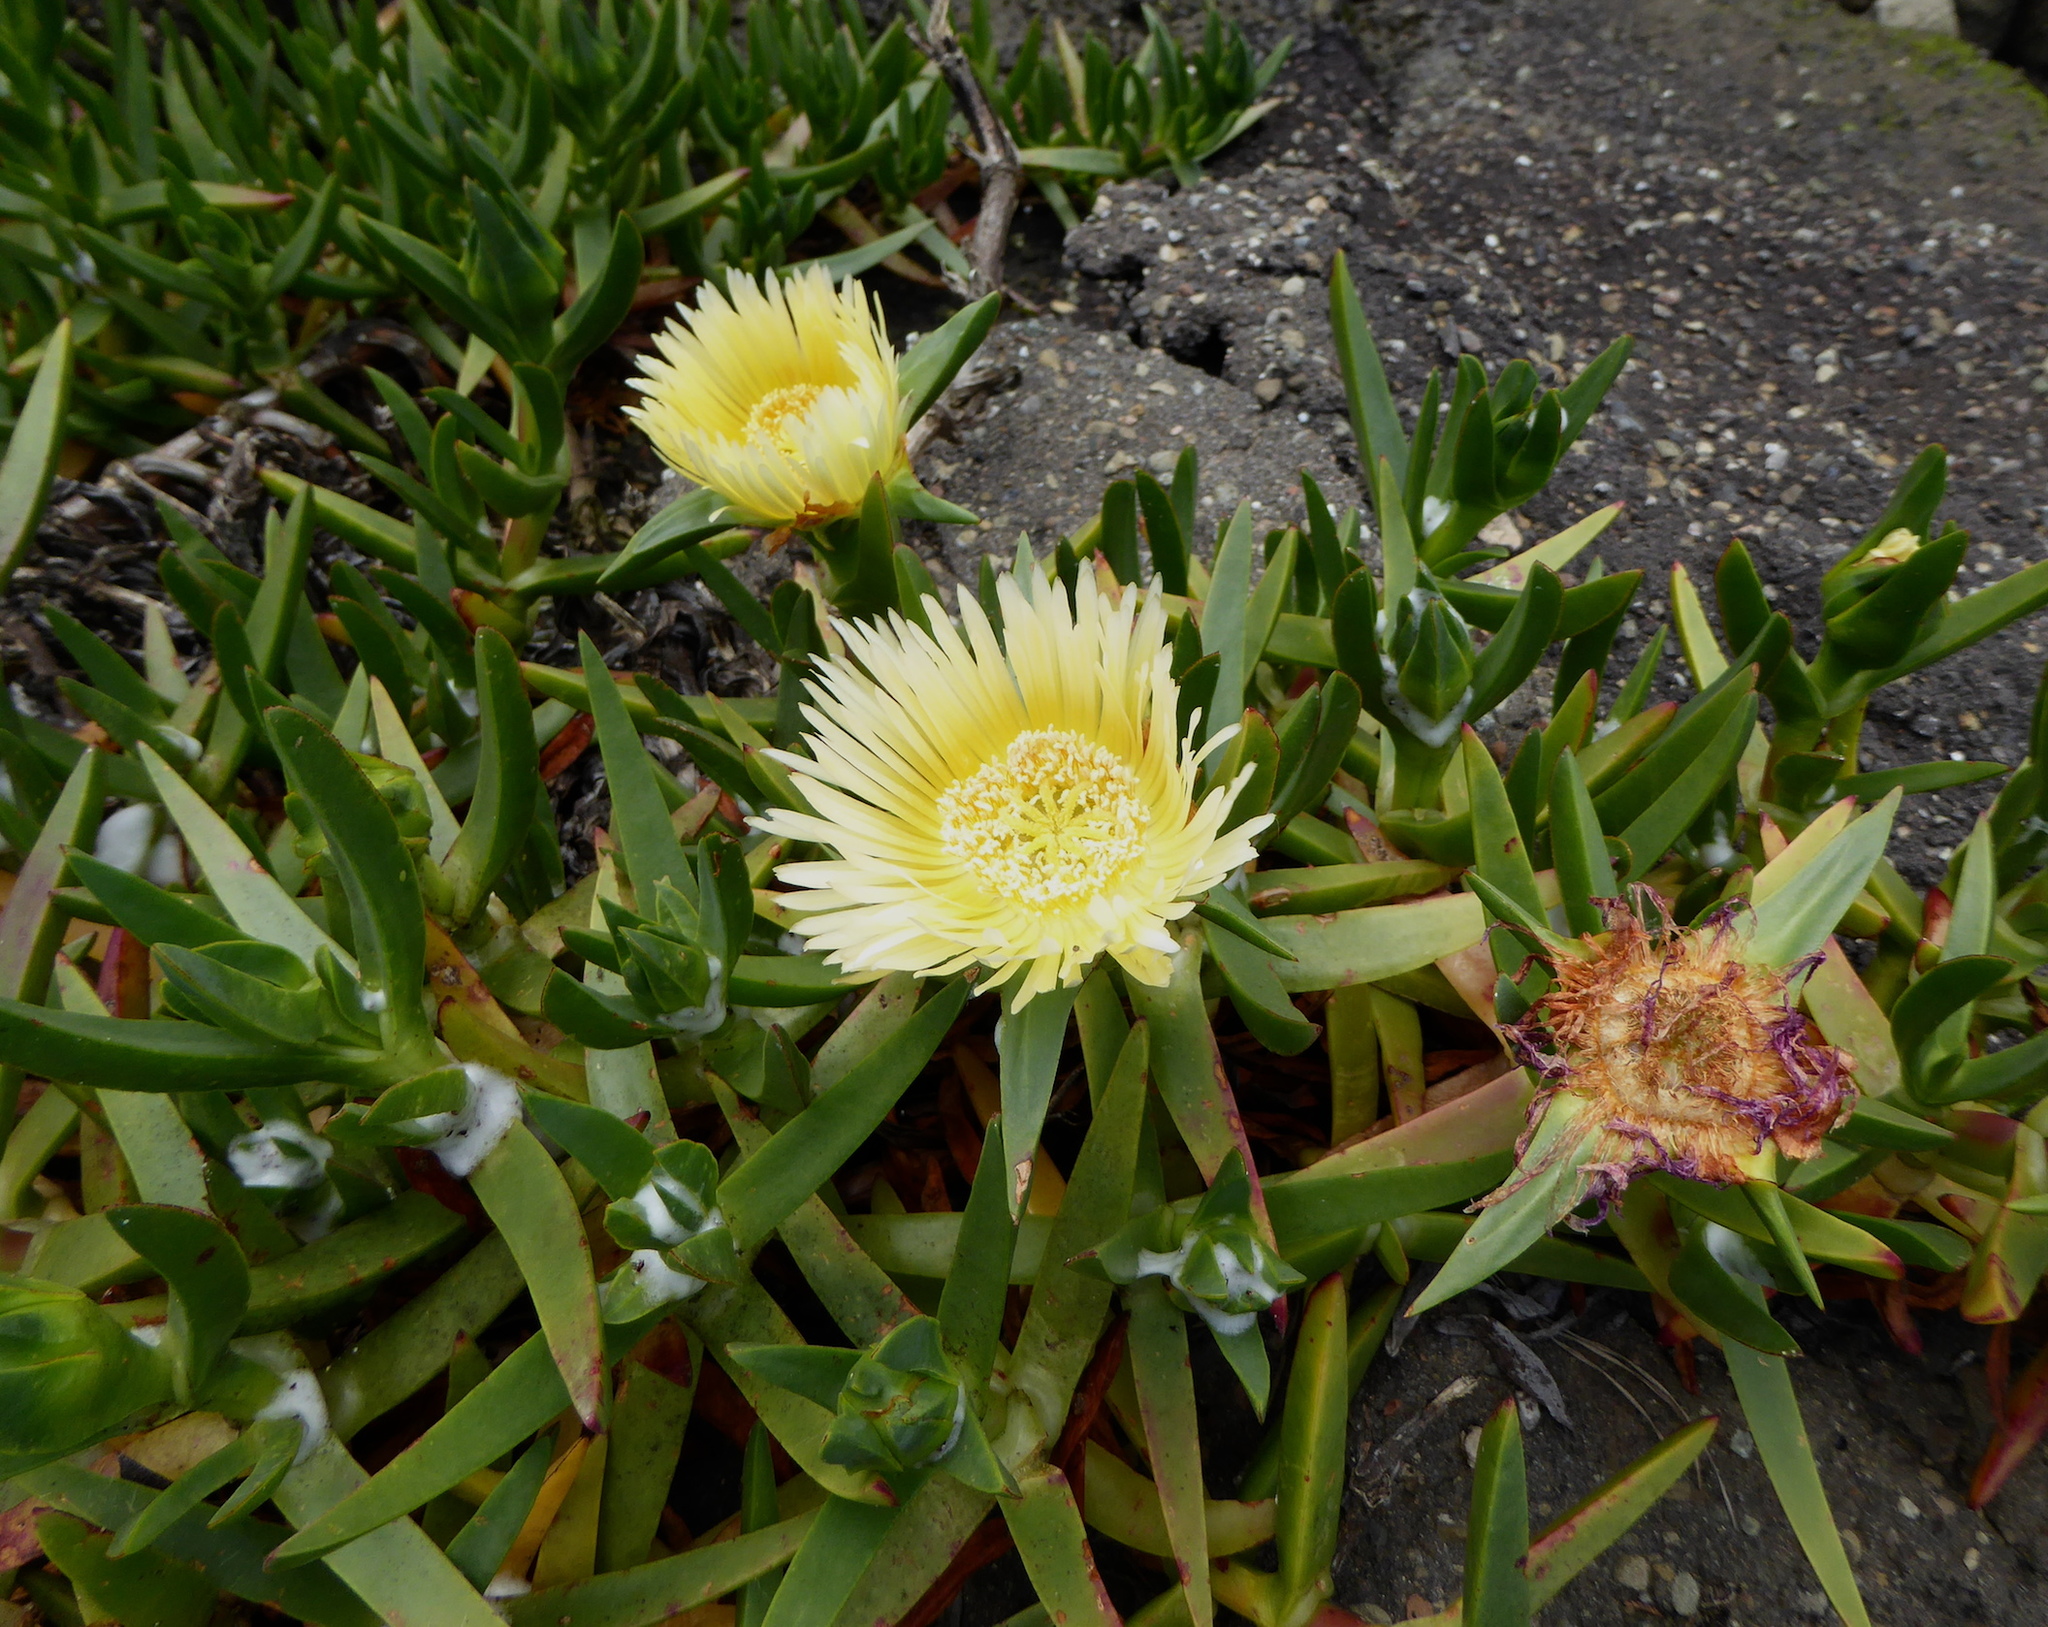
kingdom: Plantae
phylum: Tracheophyta
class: Magnoliopsida
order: Caryophyllales
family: Aizoaceae
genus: Carpobrotus
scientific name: Carpobrotus edulis
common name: Hottentot-fig
